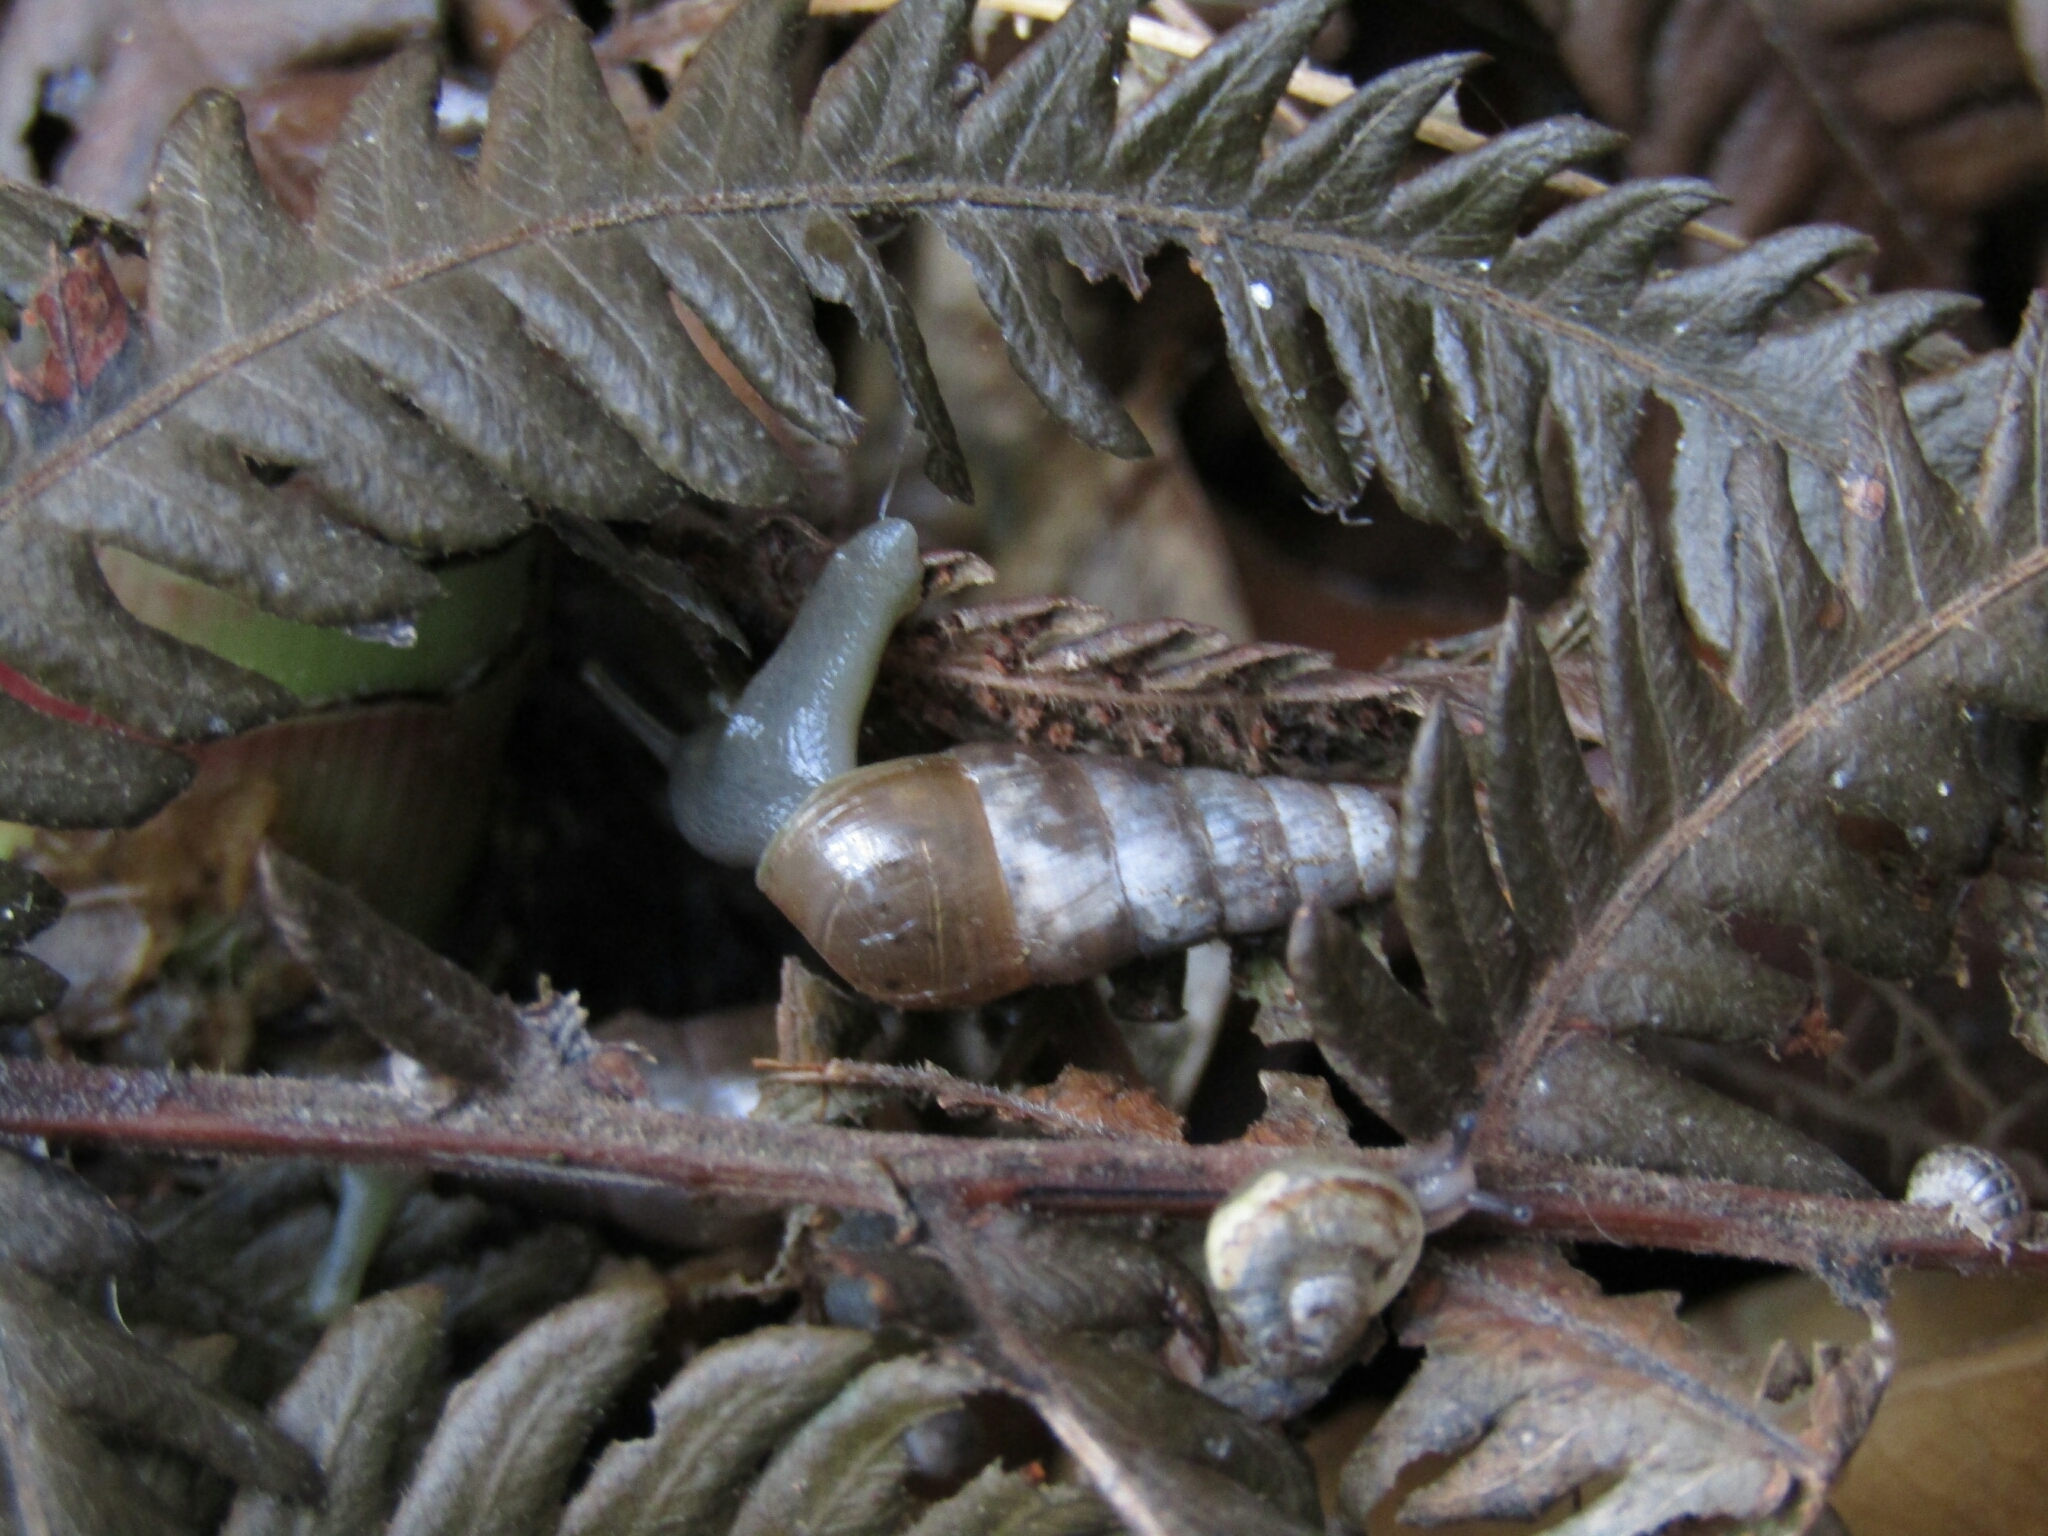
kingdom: Animalia
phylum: Mollusca
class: Gastropoda
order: Stylommatophora
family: Achatinidae
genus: Rumina
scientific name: Rumina decollata
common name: Decollate snail
